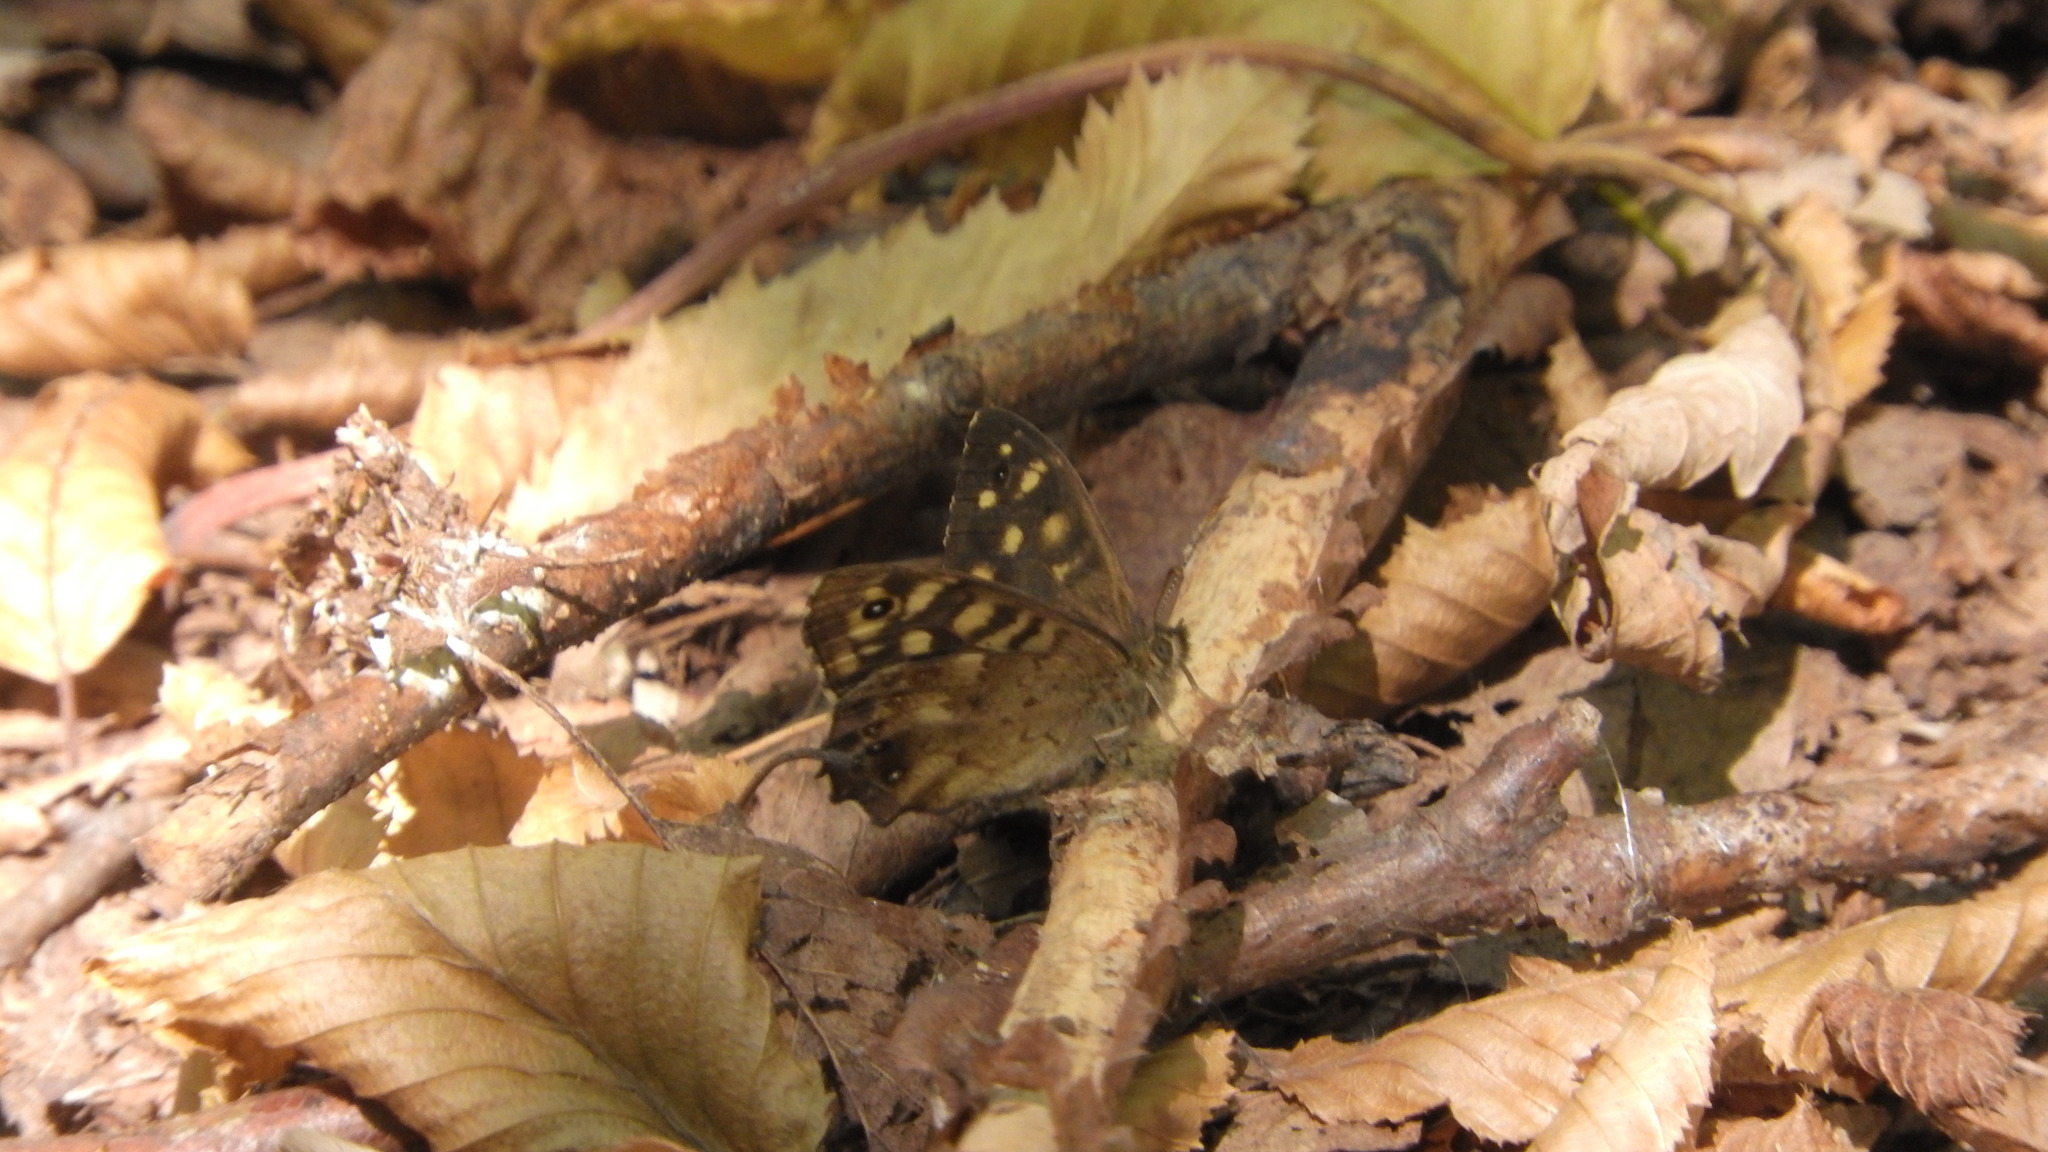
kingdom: Animalia
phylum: Arthropoda
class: Insecta
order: Lepidoptera
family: Nymphalidae
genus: Pararge
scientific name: Pararge aegeria
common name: Speckled wood
